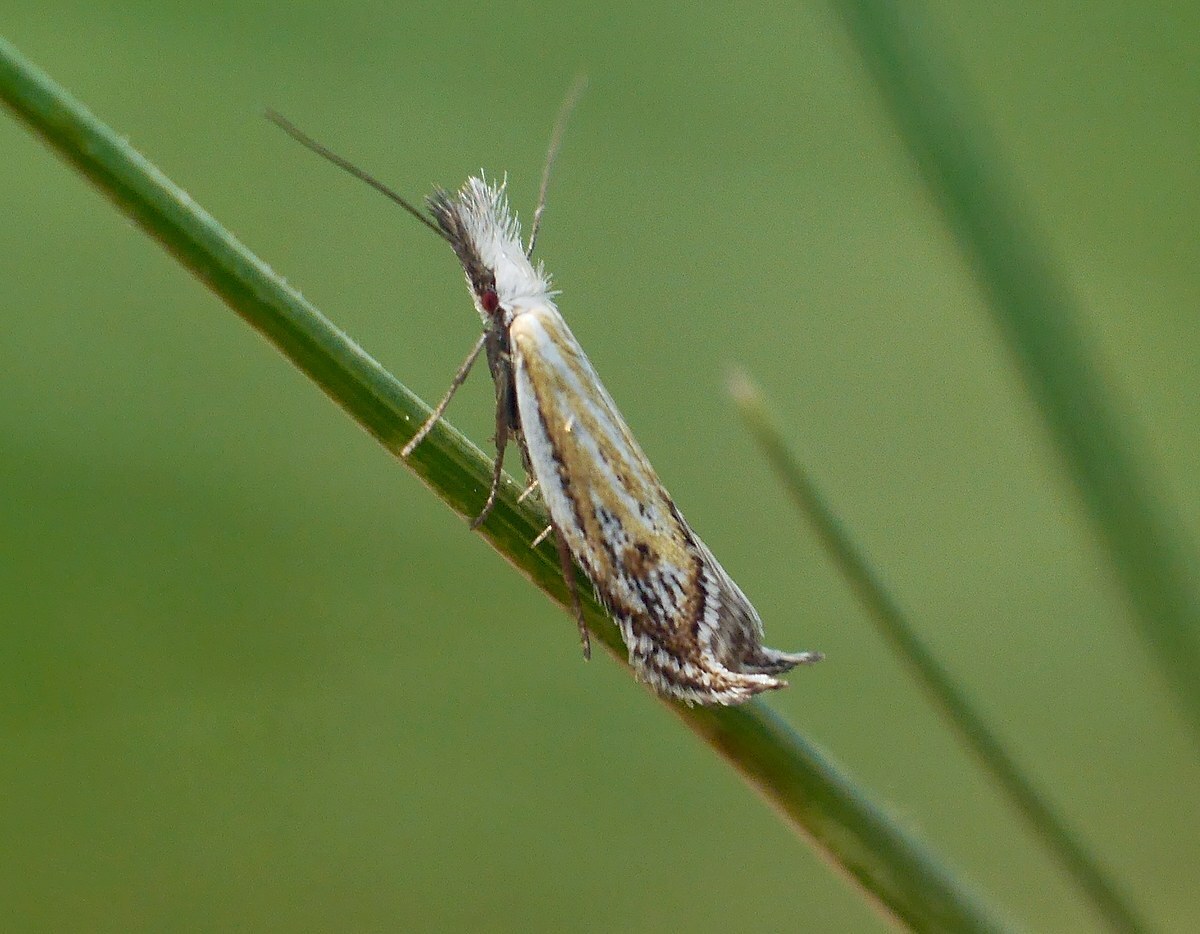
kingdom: Animalia
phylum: Arthropoda
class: Insecta
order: Lepidoptera
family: Oecophoridae
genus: Pleurota
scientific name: Pleurota huebneri
